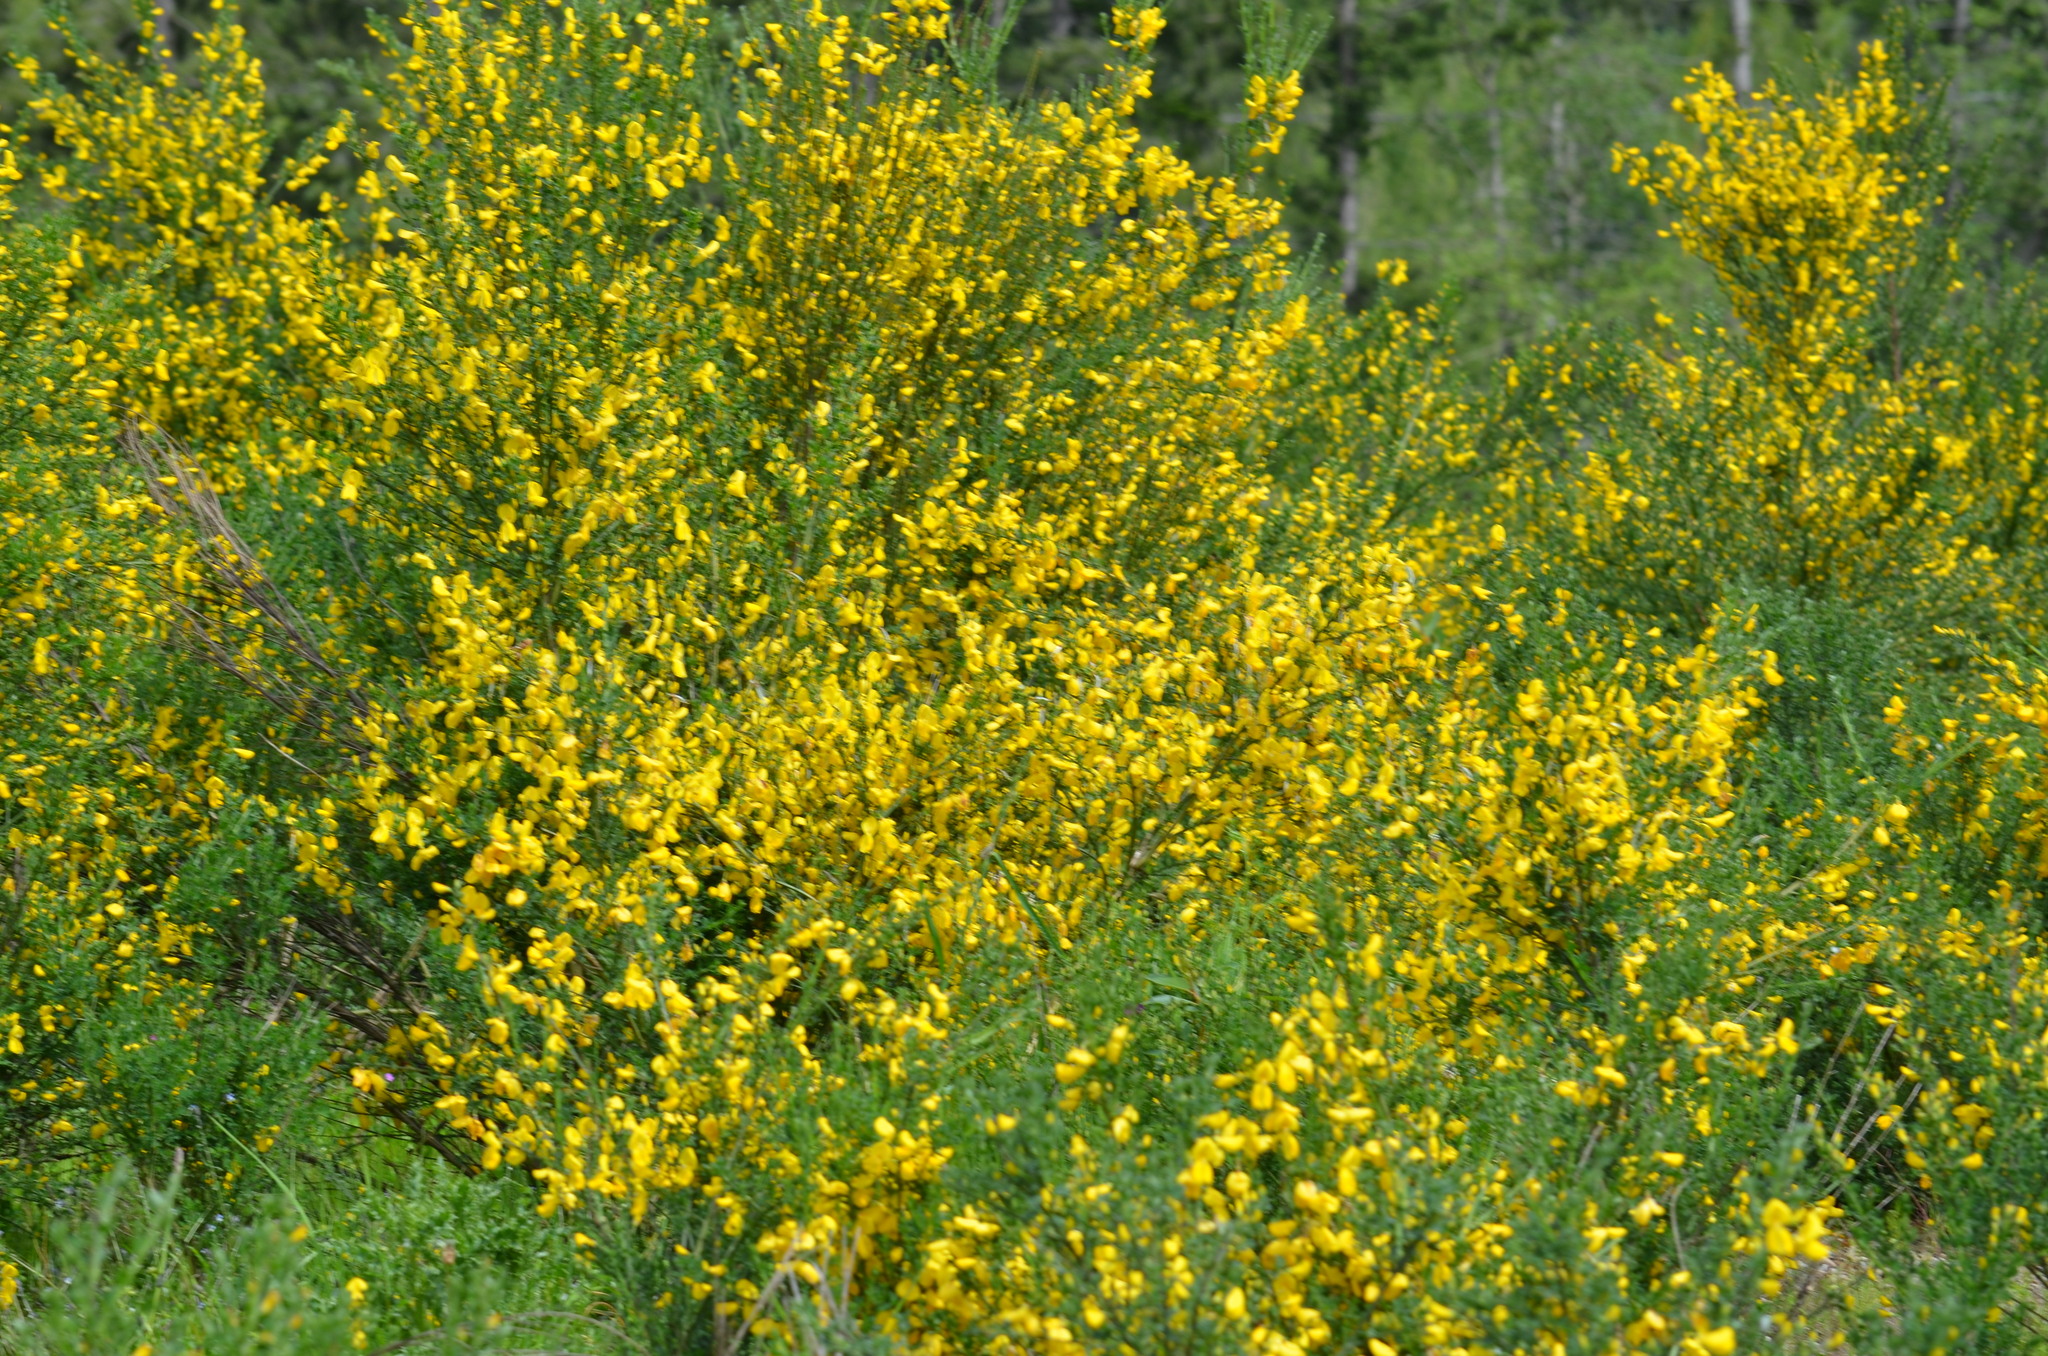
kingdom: Plantae
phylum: Tracheophyta
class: Magnoliopsida
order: Fabales
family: Fabaceae
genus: Cytisus
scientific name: Cytisus scoparius
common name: Scotch broom
